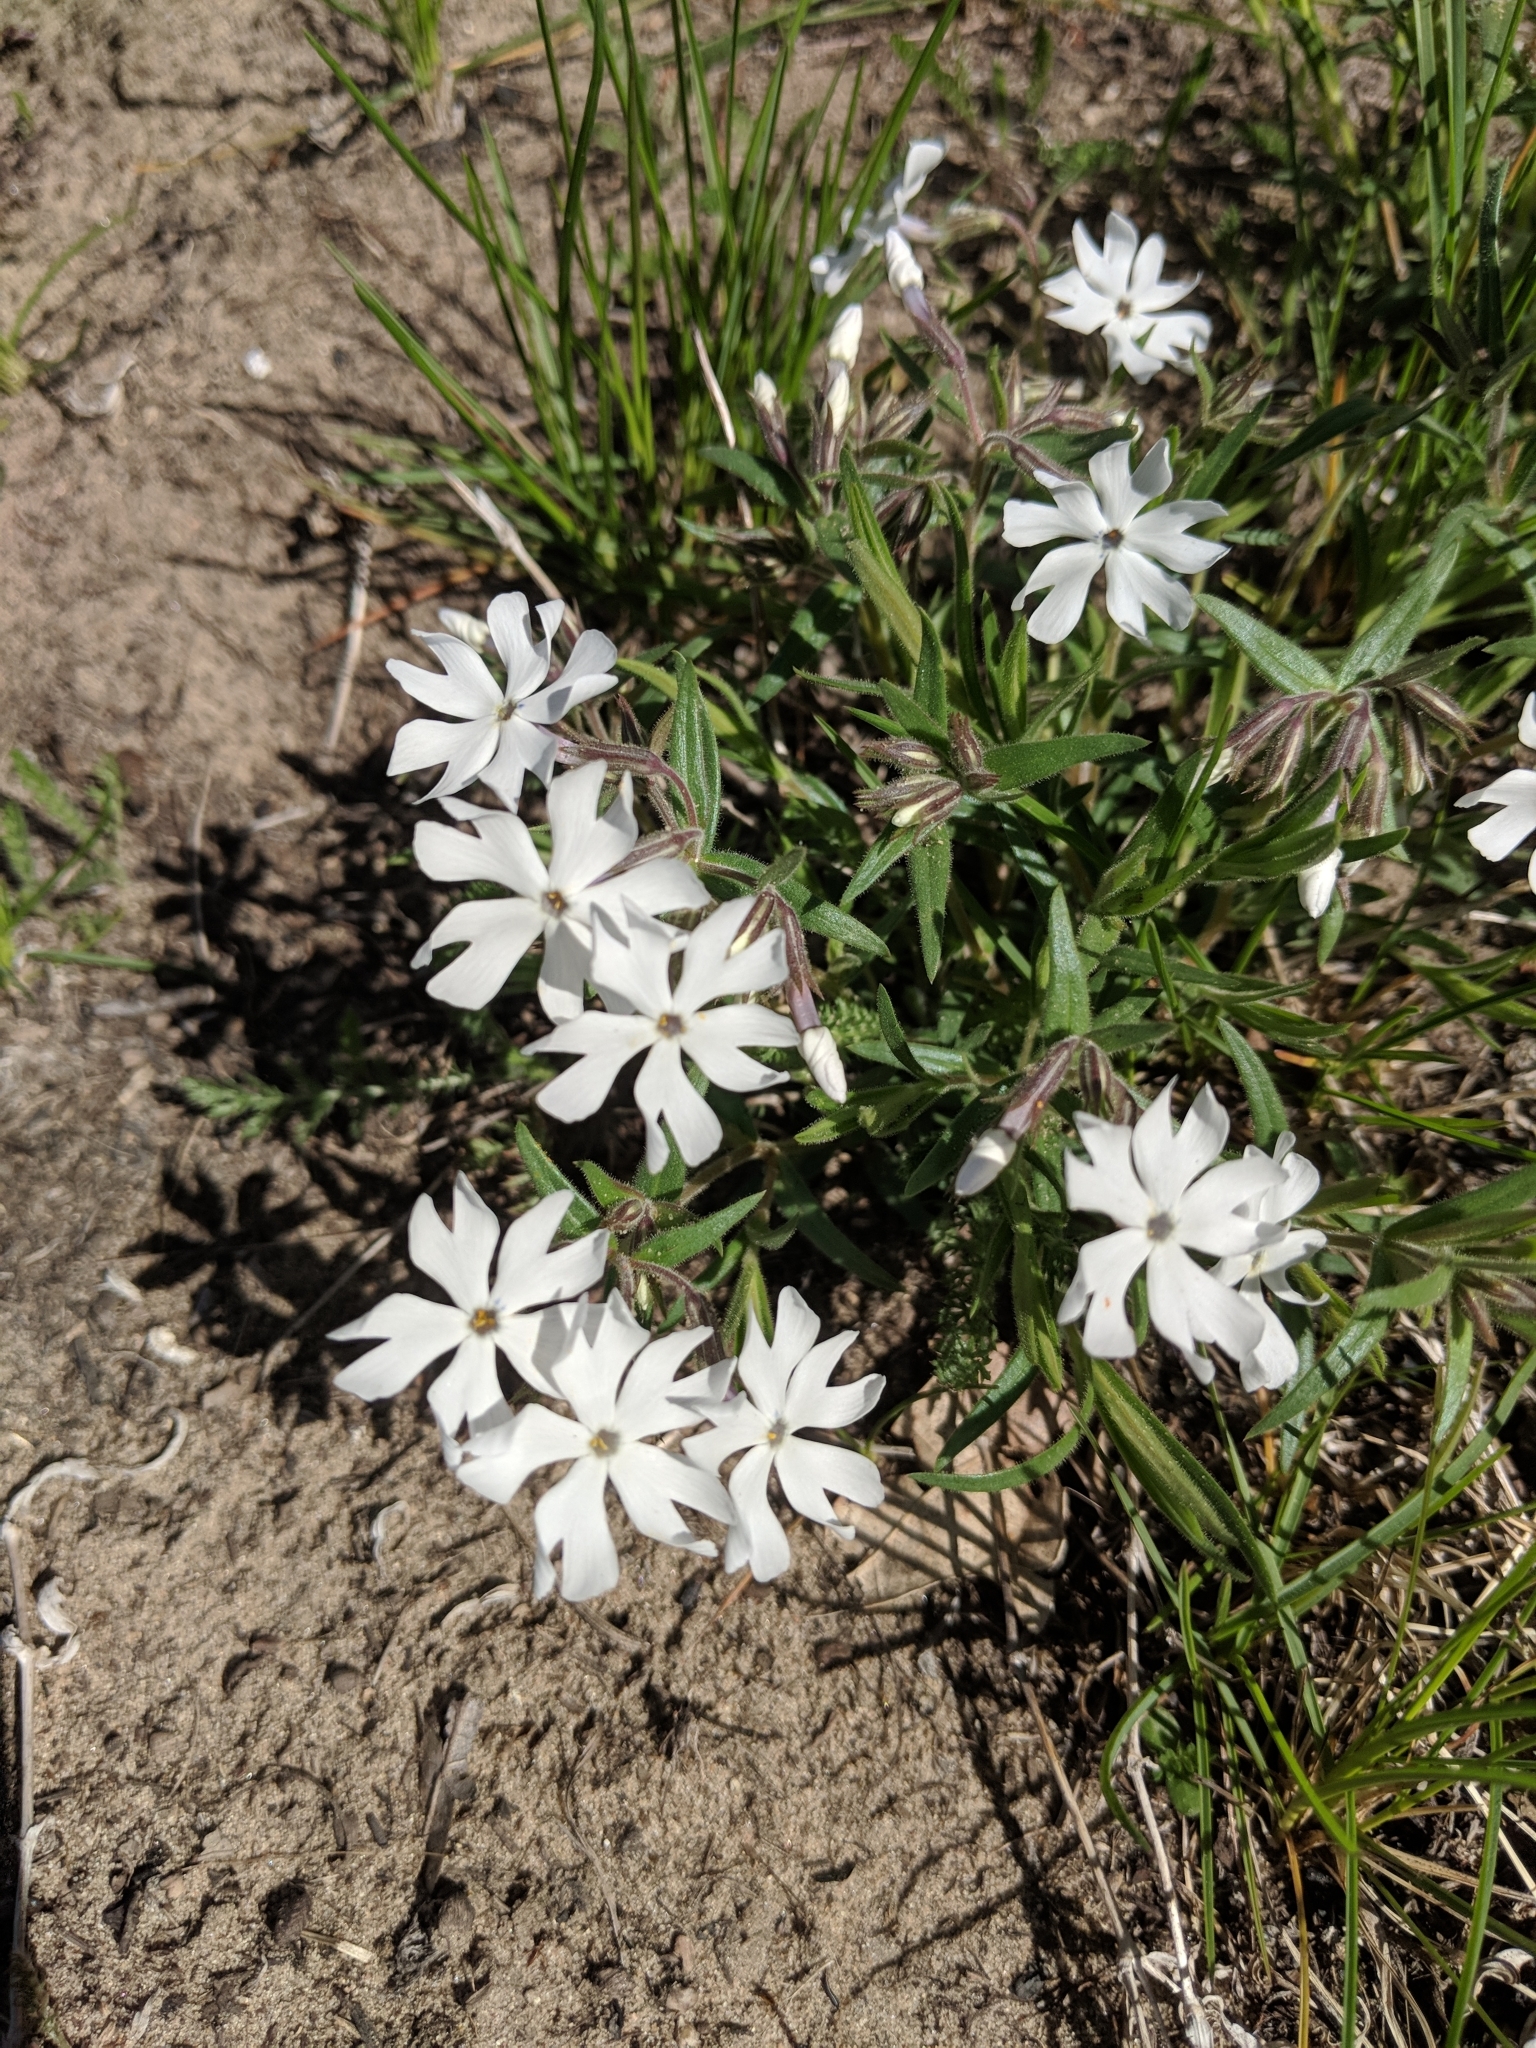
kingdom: Plantae
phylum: Tracheophyta
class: Magnoliopsida
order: Ericales
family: Polemoniaceae
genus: Phlox
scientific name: Phlox bifida
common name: Sand phlox
